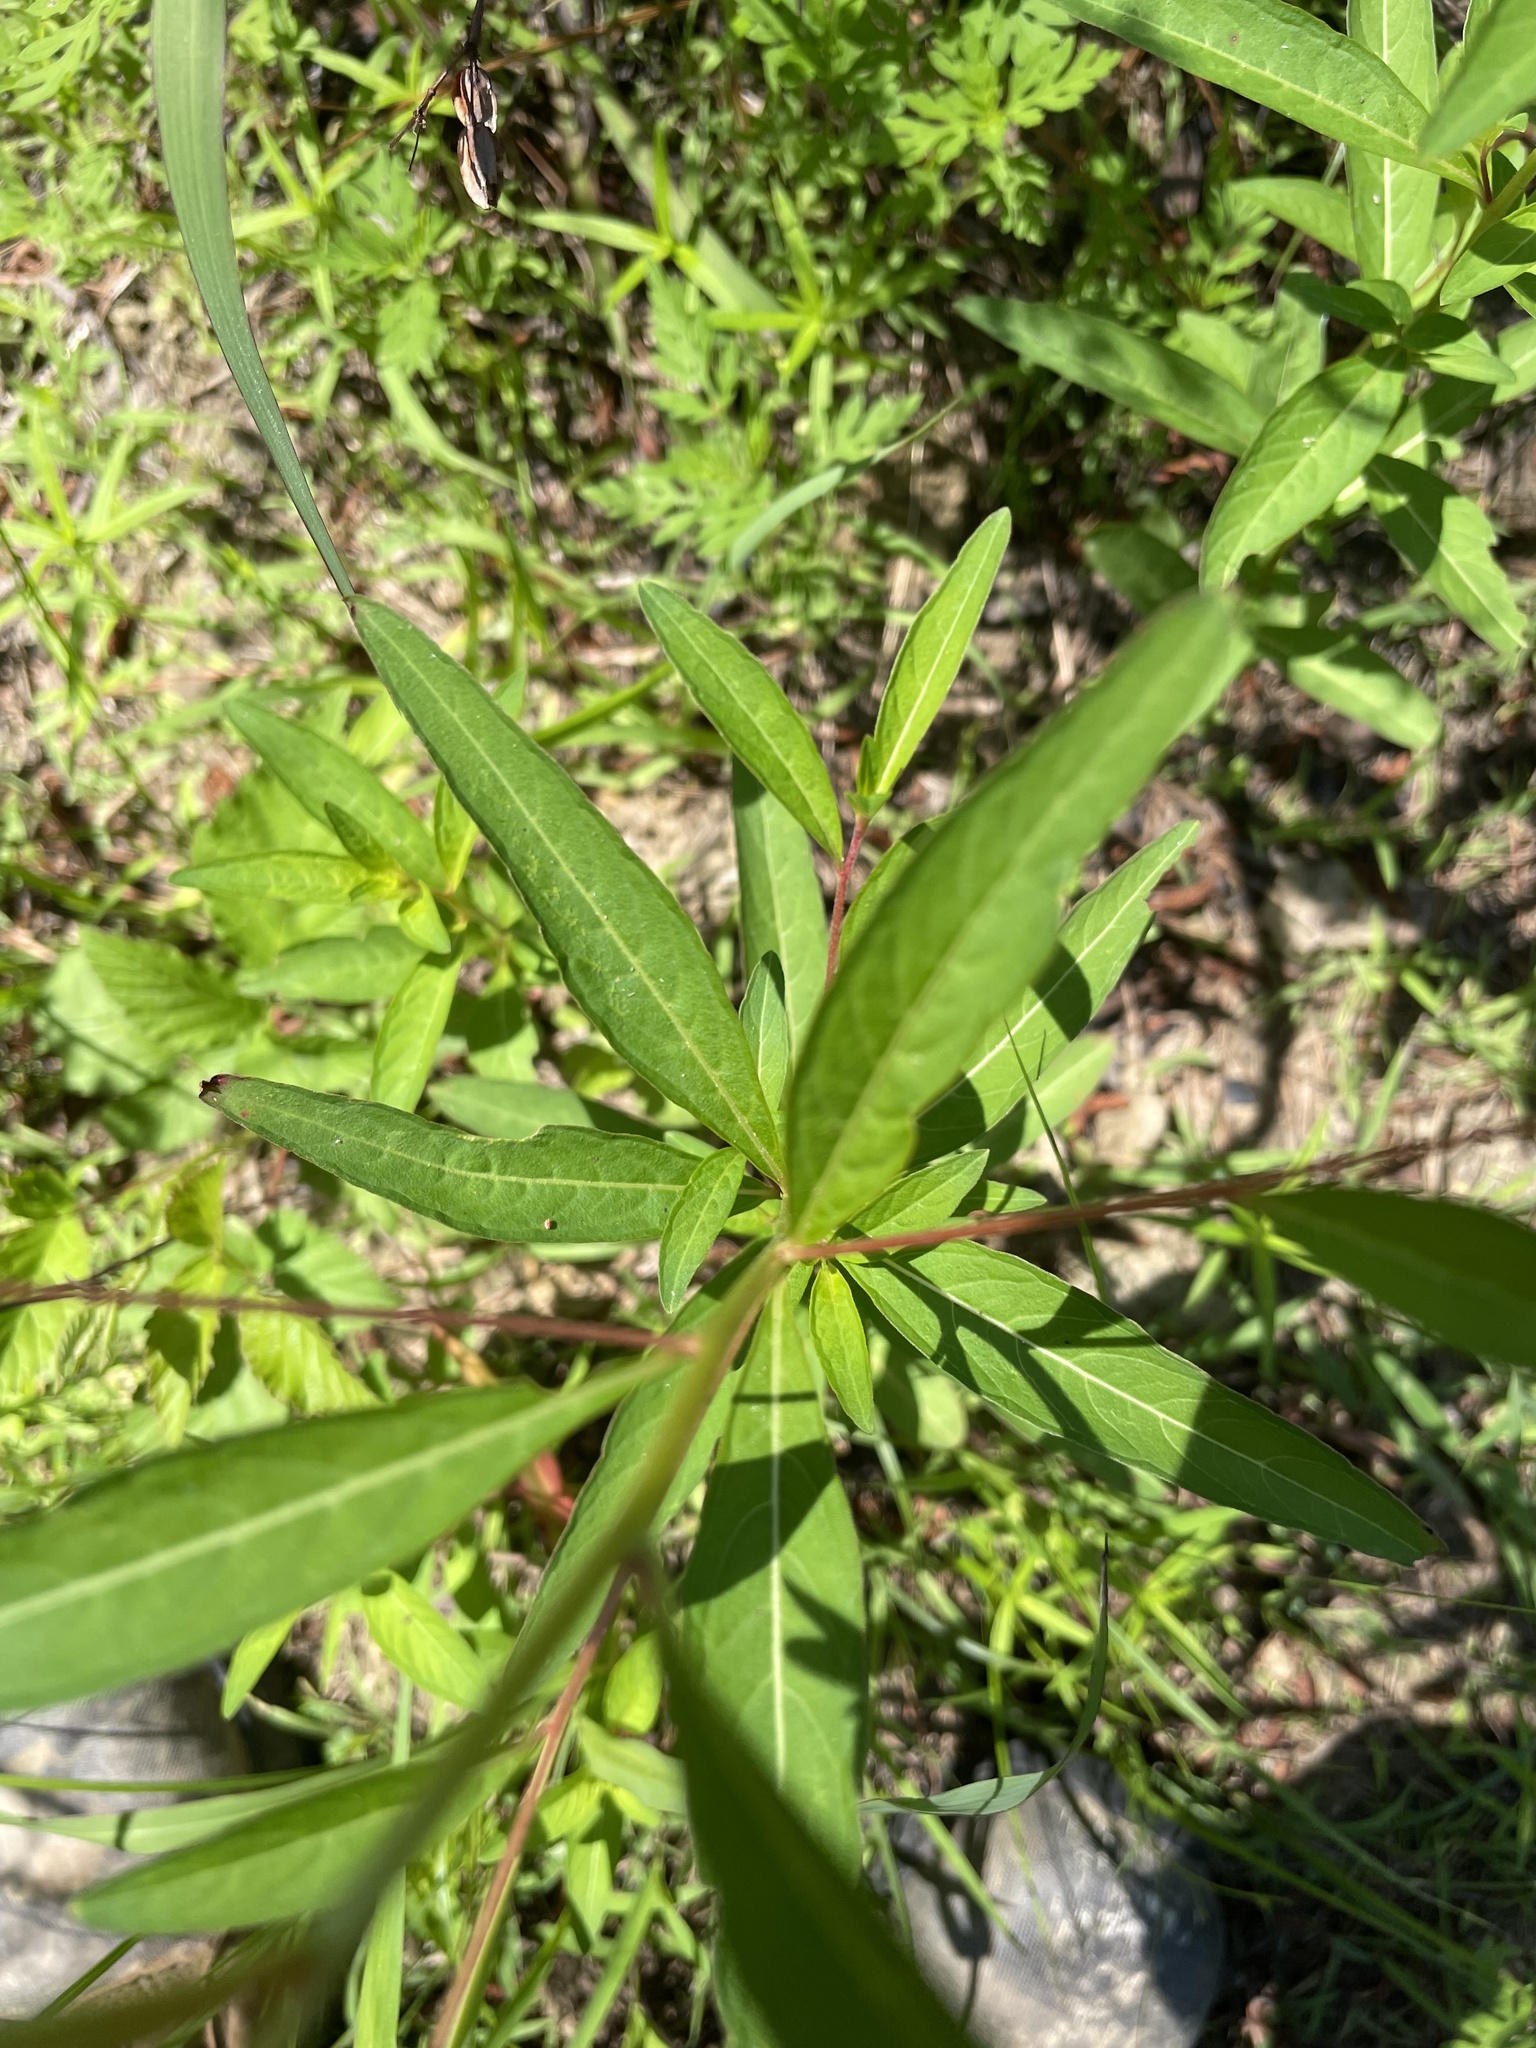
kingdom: Plantae
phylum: Tracheophyta
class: Magnoliopsida
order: Myrtales
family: Onagraceae
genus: Ludwigia
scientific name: Ludwigia alternifolia
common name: Rattlebox
